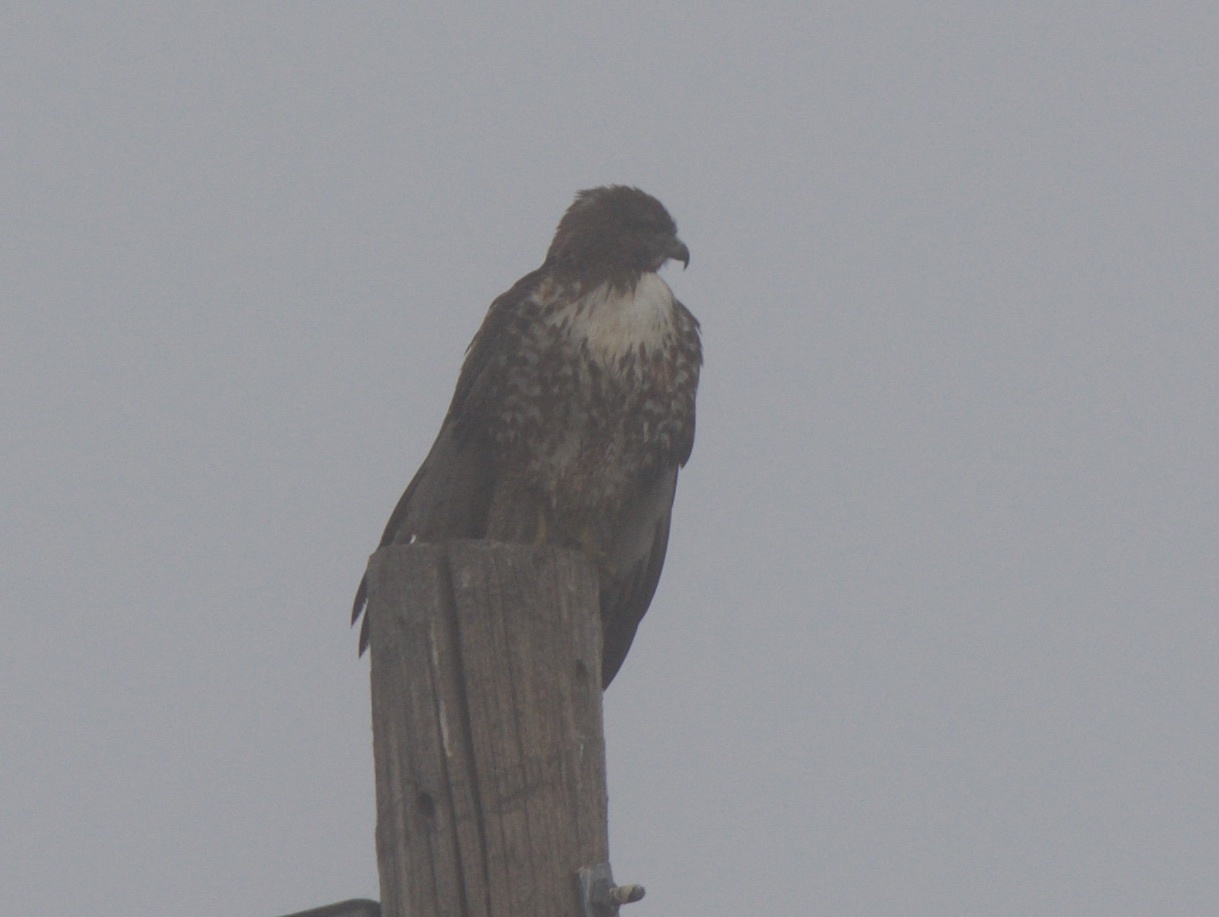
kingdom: Animalia
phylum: Chordata
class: Aves
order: Accipitriformes
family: Accipitridae
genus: Buteo
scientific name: Buteo jamaicensis
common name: Red-tailed hawk
